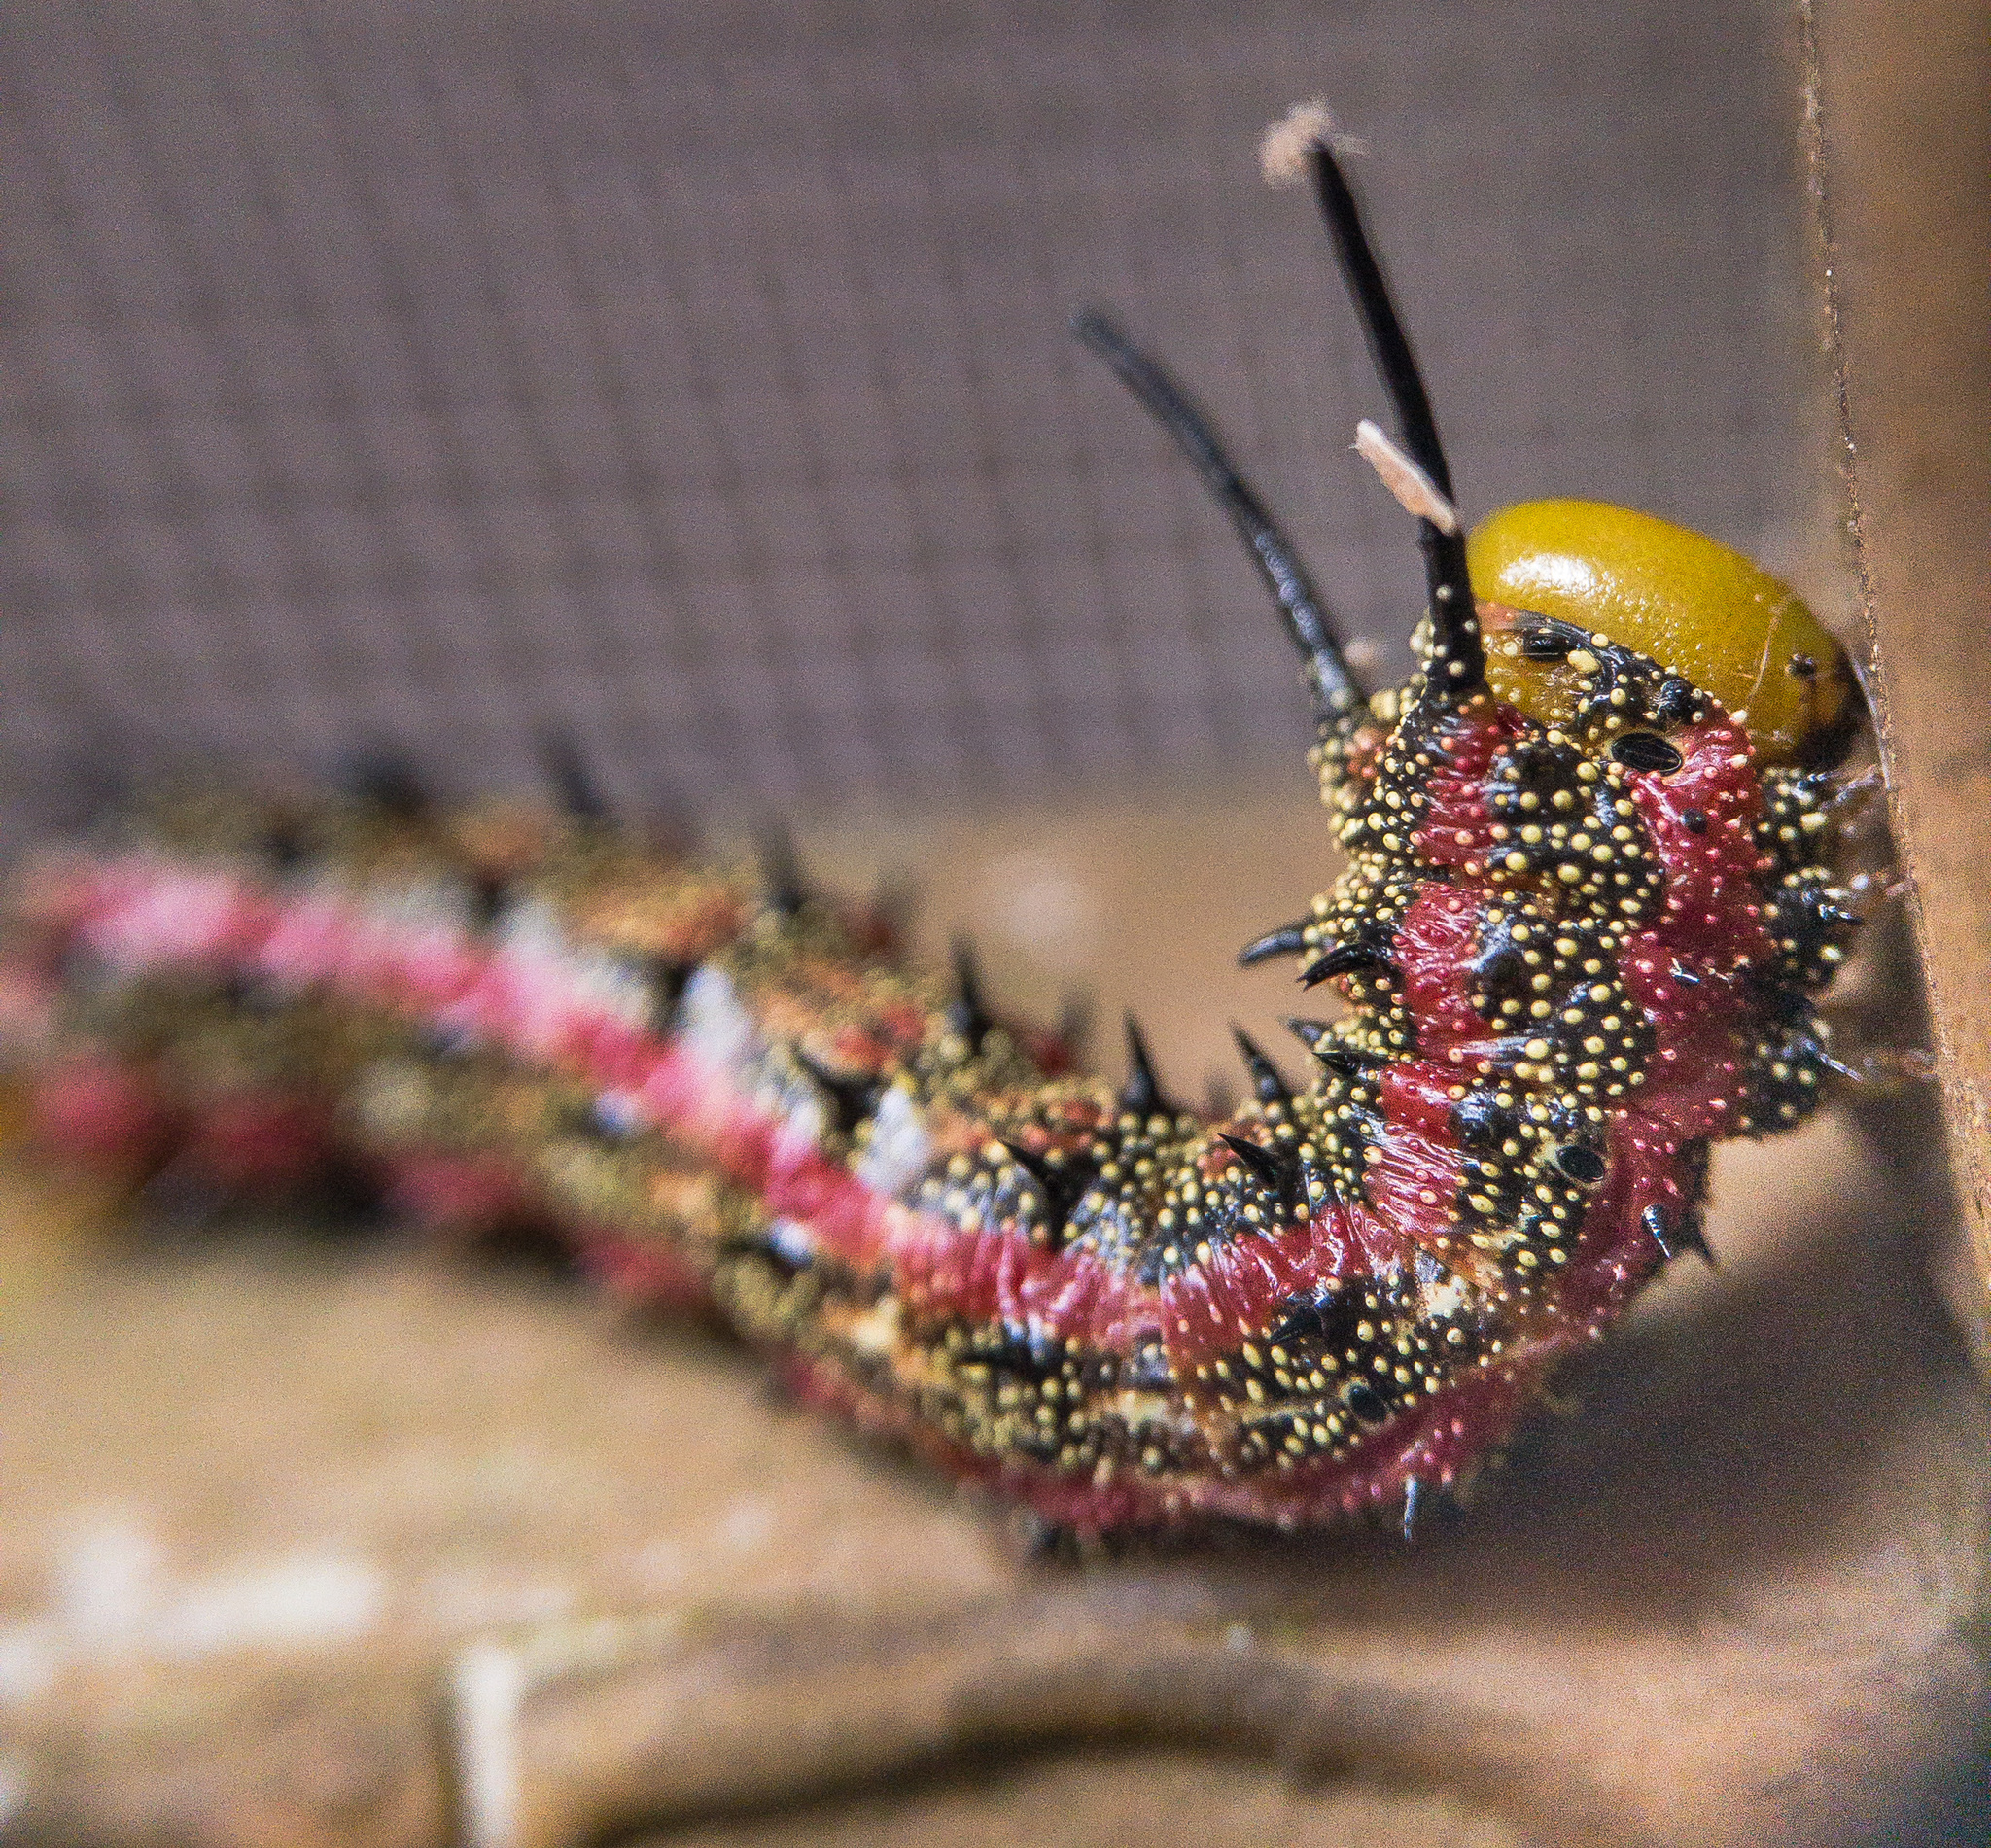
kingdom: Animalia
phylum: Arthropoda
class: Insecta
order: Lepidoptera
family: Saturniidae
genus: Anisota
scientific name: Anisota virginiensis
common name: Pink striped oakworm moth
